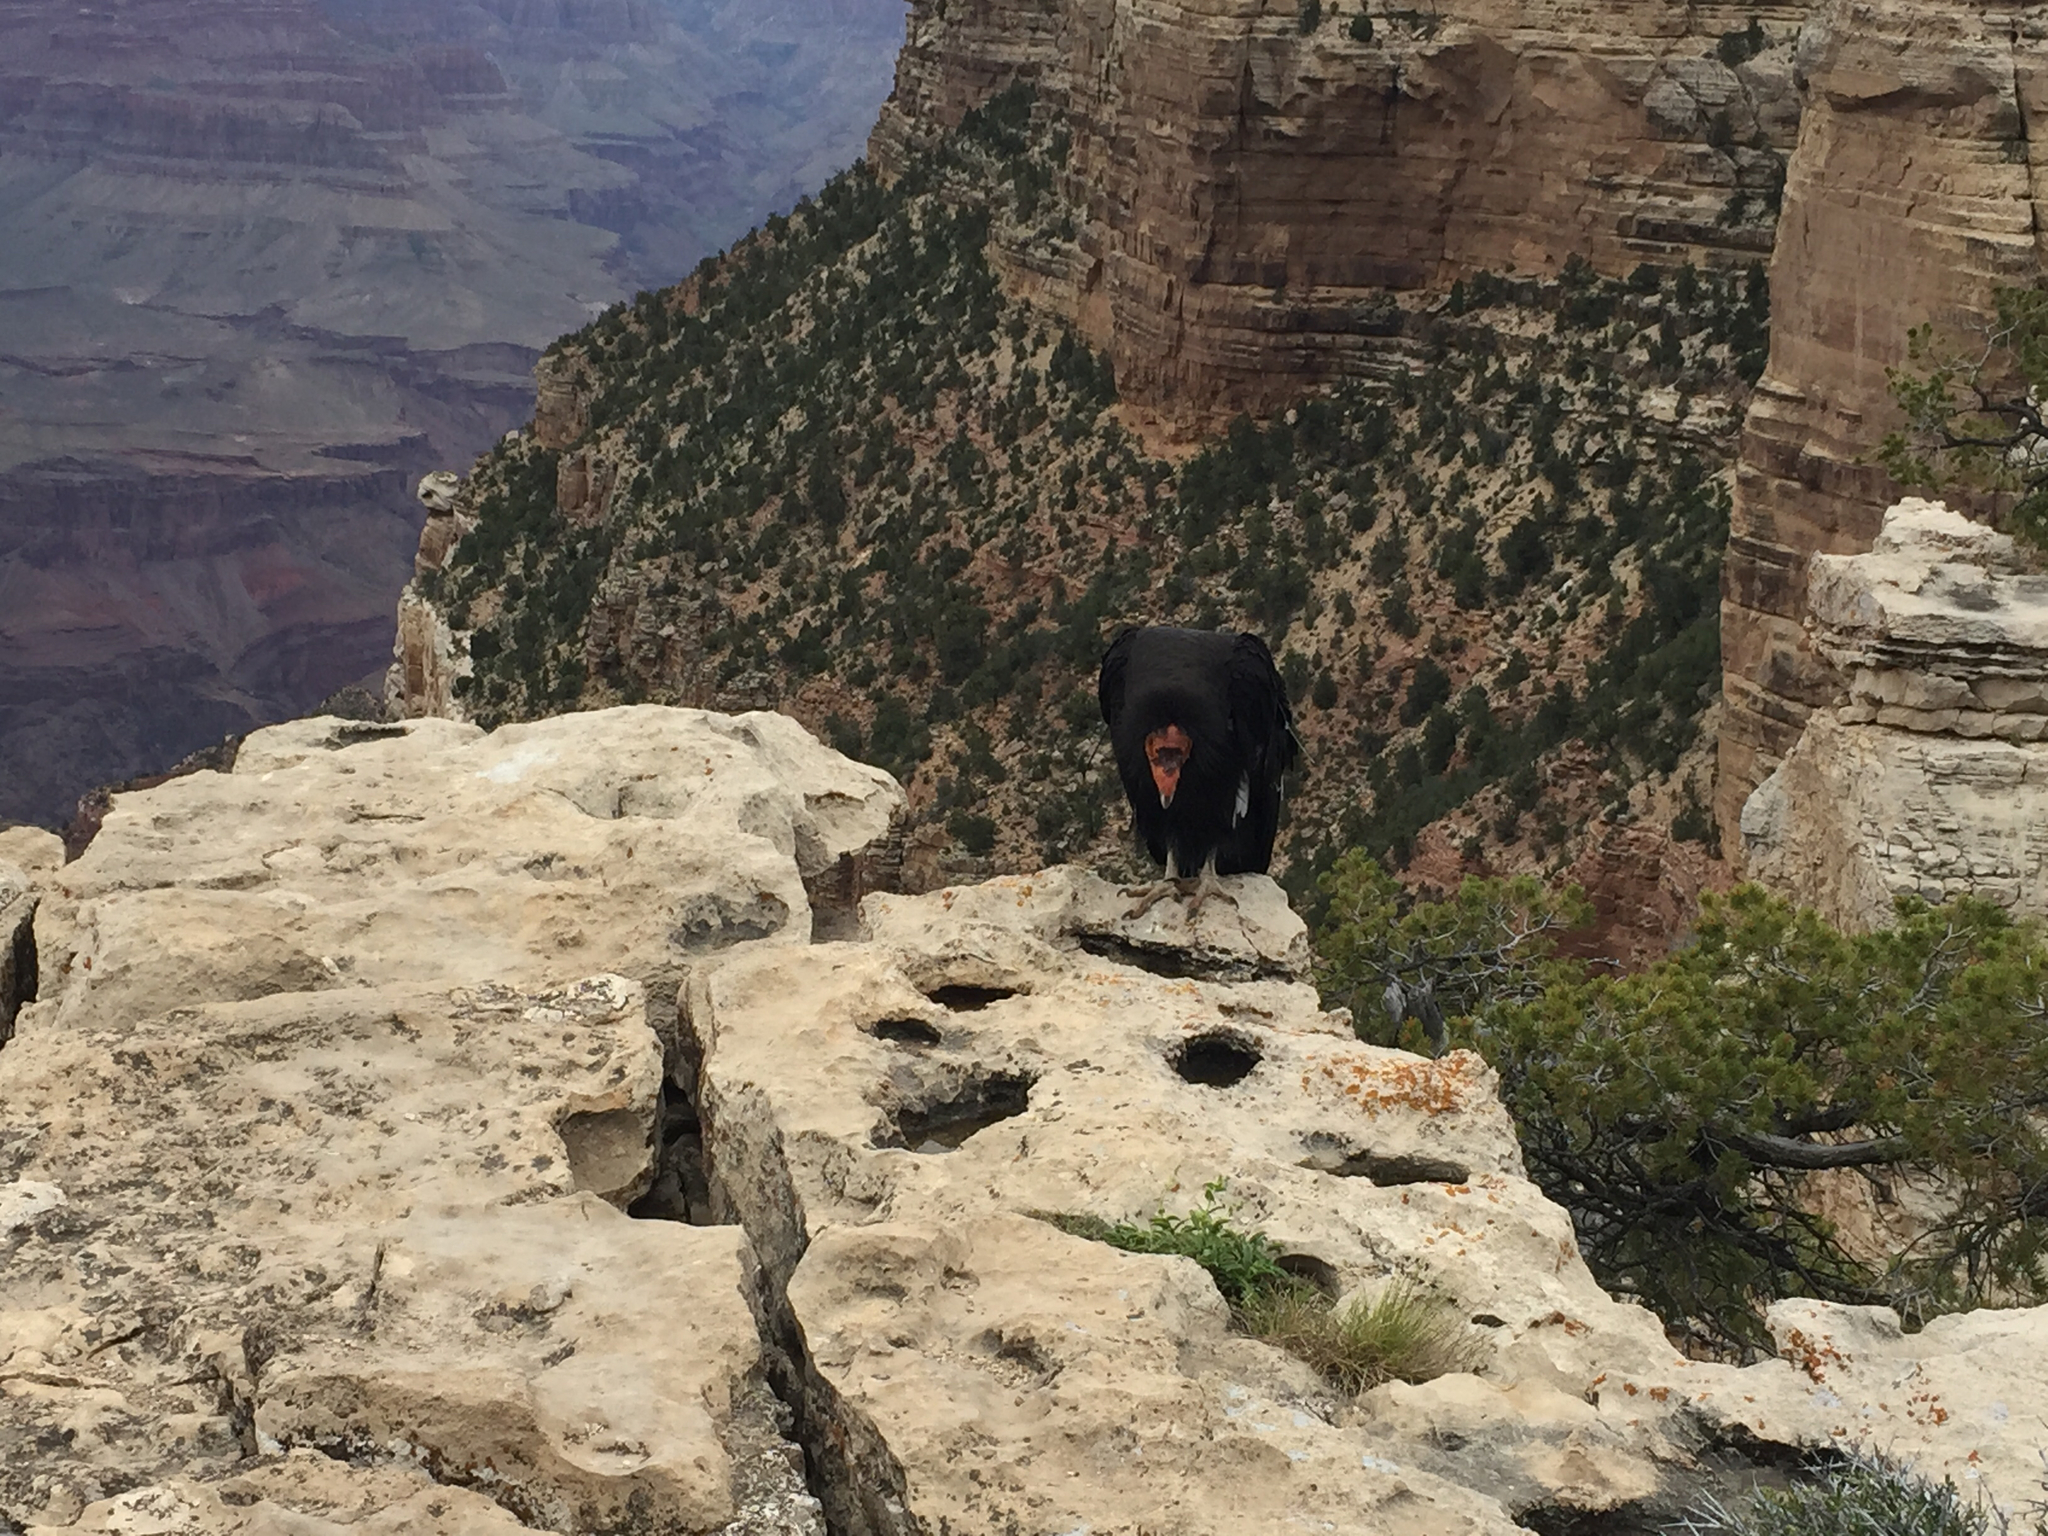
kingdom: Animalia
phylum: Chordata
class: Aves
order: Accipitriformes
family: Cathartidae
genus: Gymnogyps
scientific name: Gymnogyps californianus
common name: California condor
